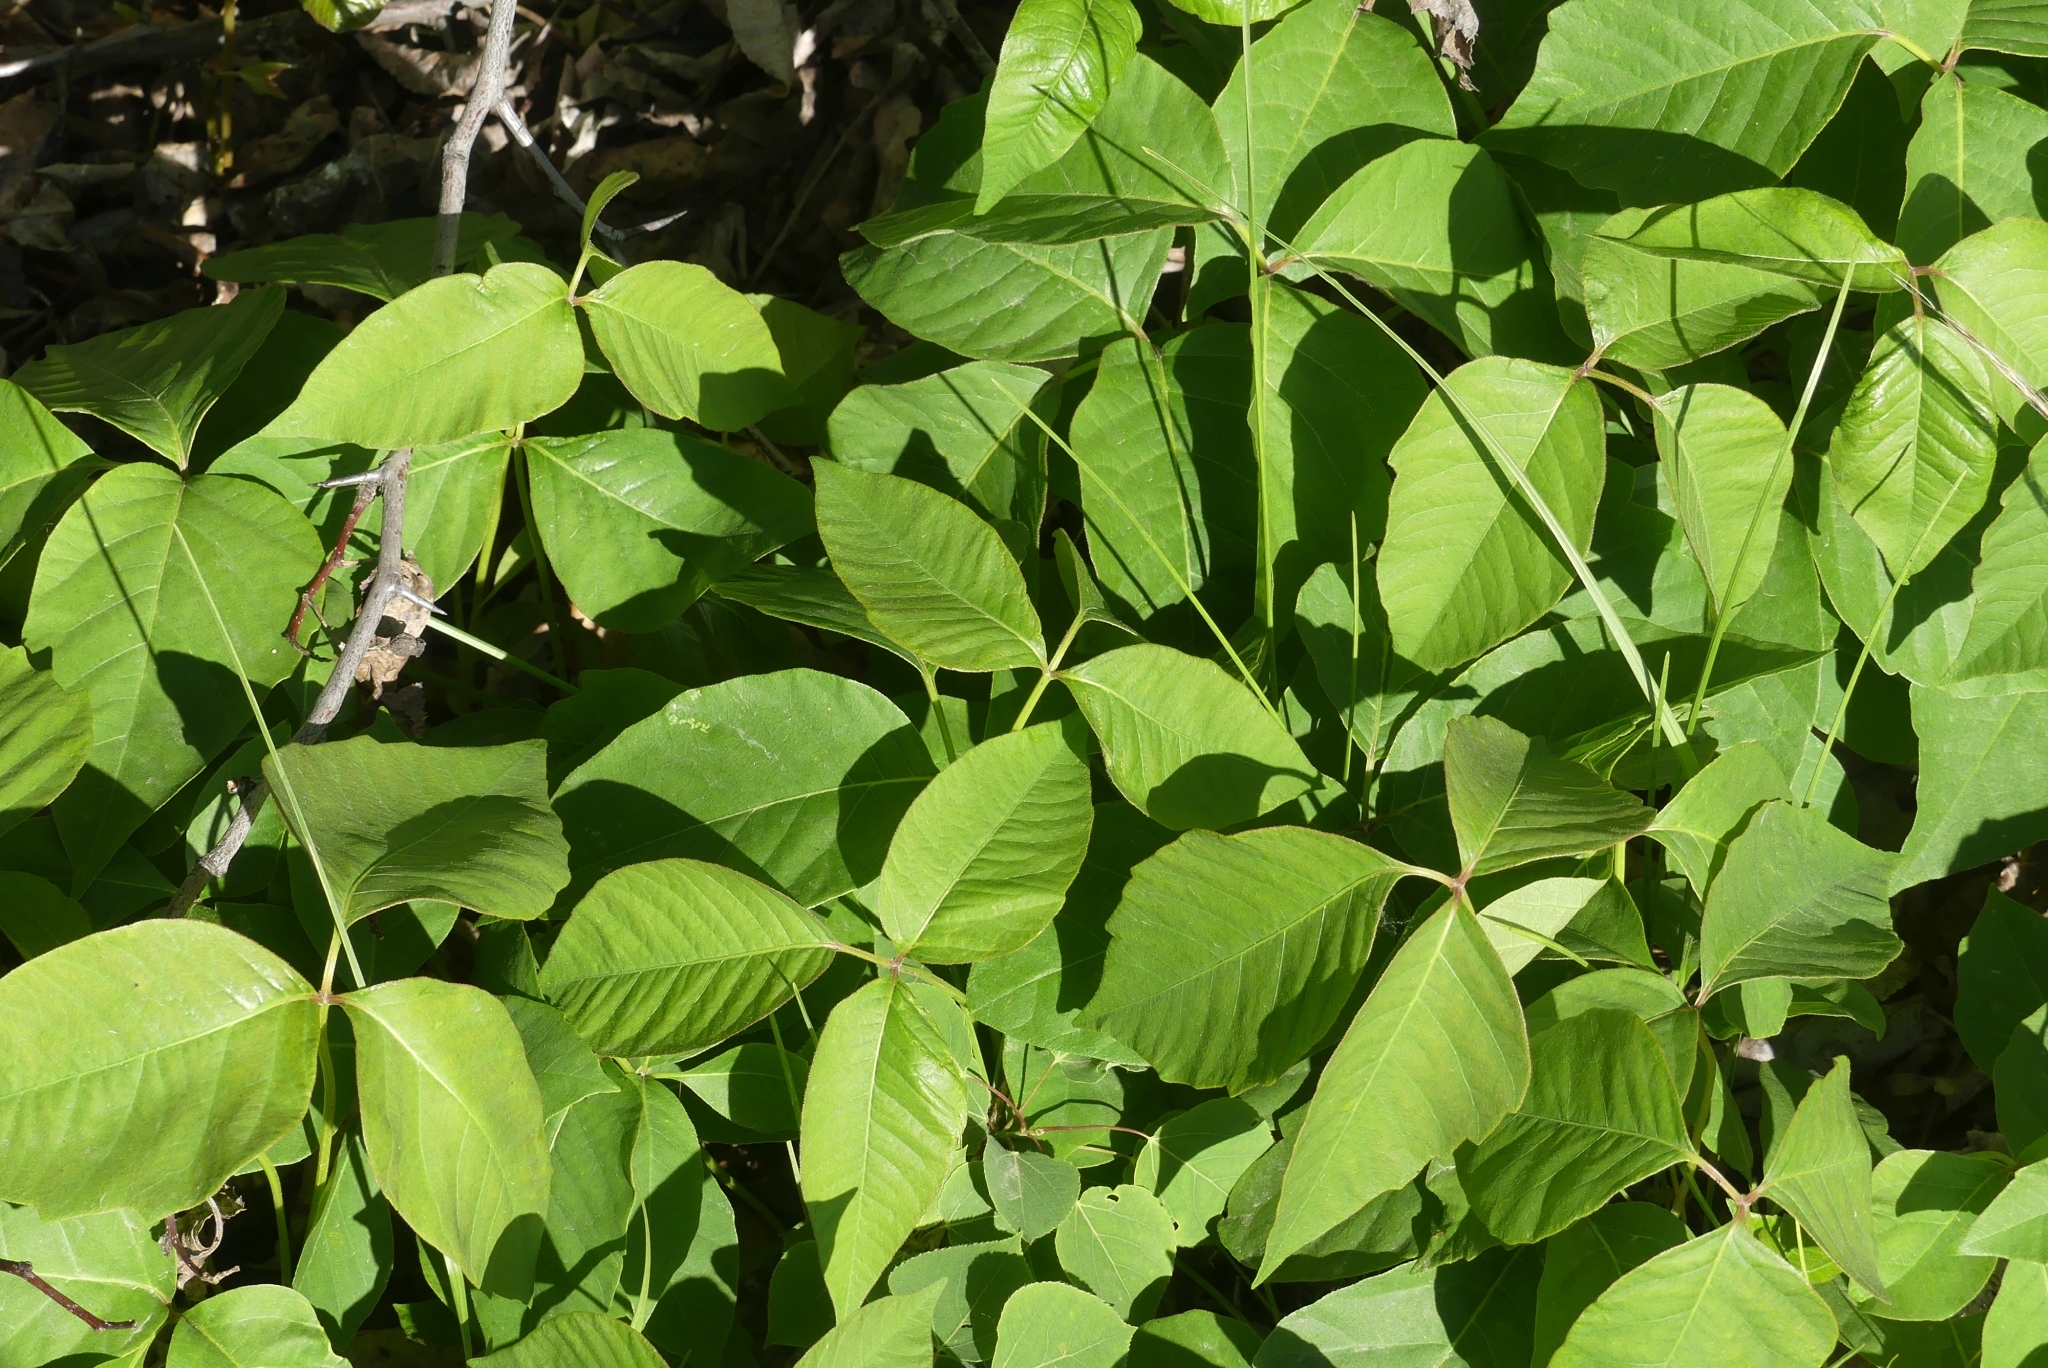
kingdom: Plantae
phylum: Tracheophyta
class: Magnoliopsida
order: Sapindales
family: Anacardiaceae
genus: Toxicodendron
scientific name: Toxicodendron rydbergii
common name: Rydberg's poison-ivy
